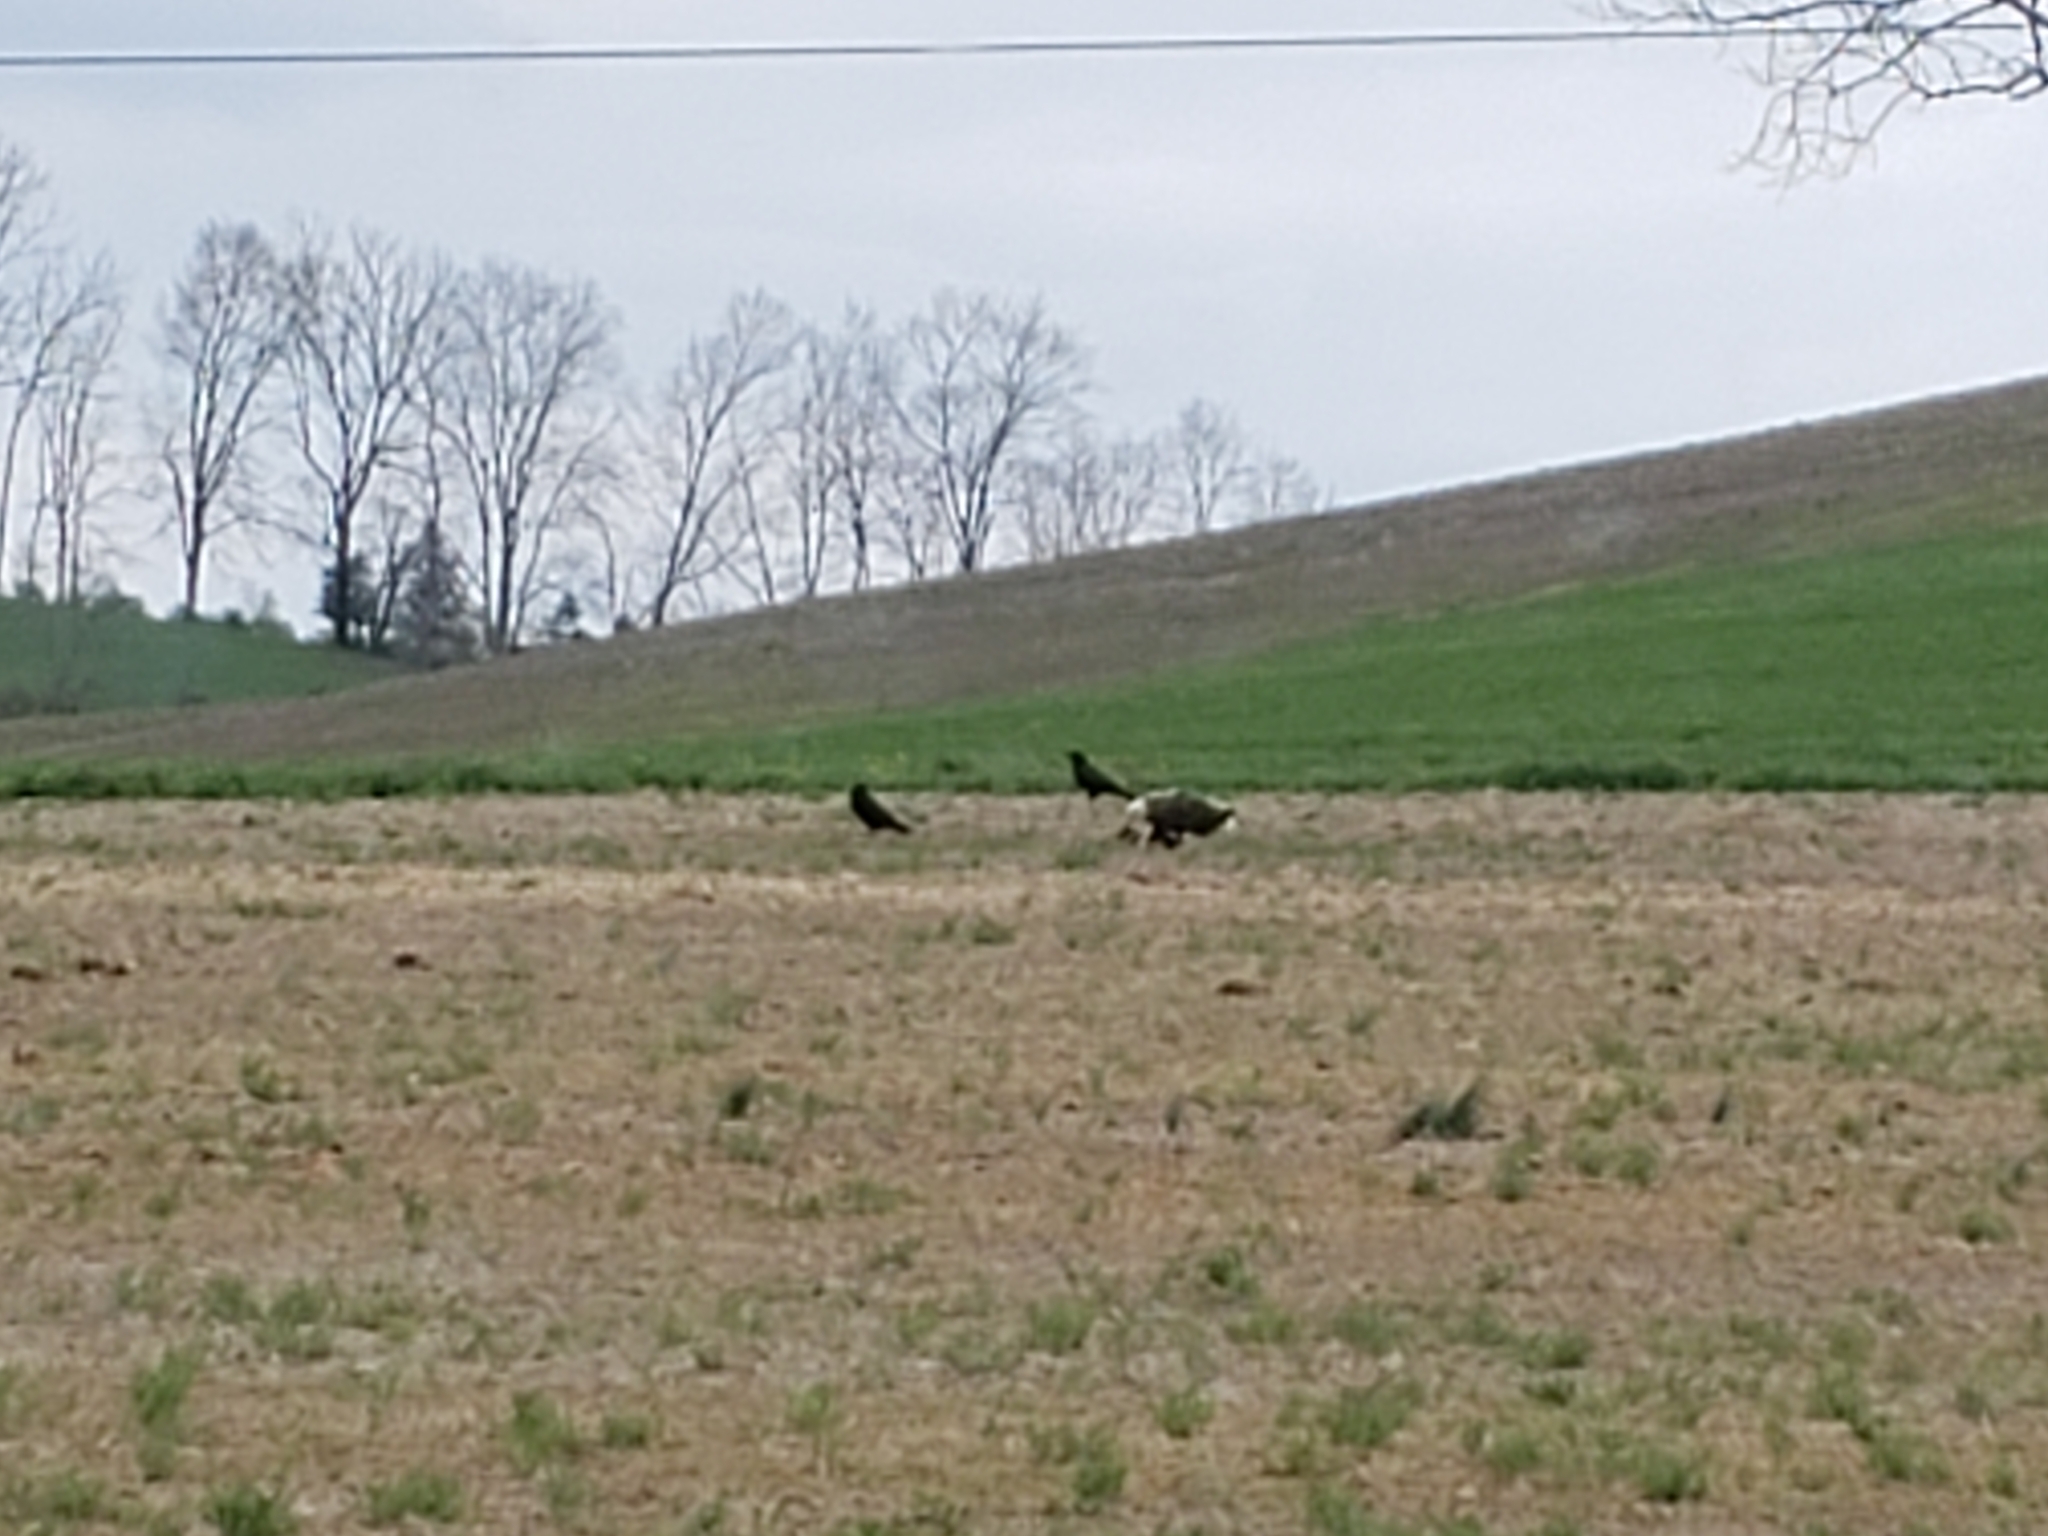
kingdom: Animalia
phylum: Chordata
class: Aves
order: Accipitriformes
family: Accipitridae
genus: Haliaeetus
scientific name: Haliaeetus leucocephalus
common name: Bald eagle
